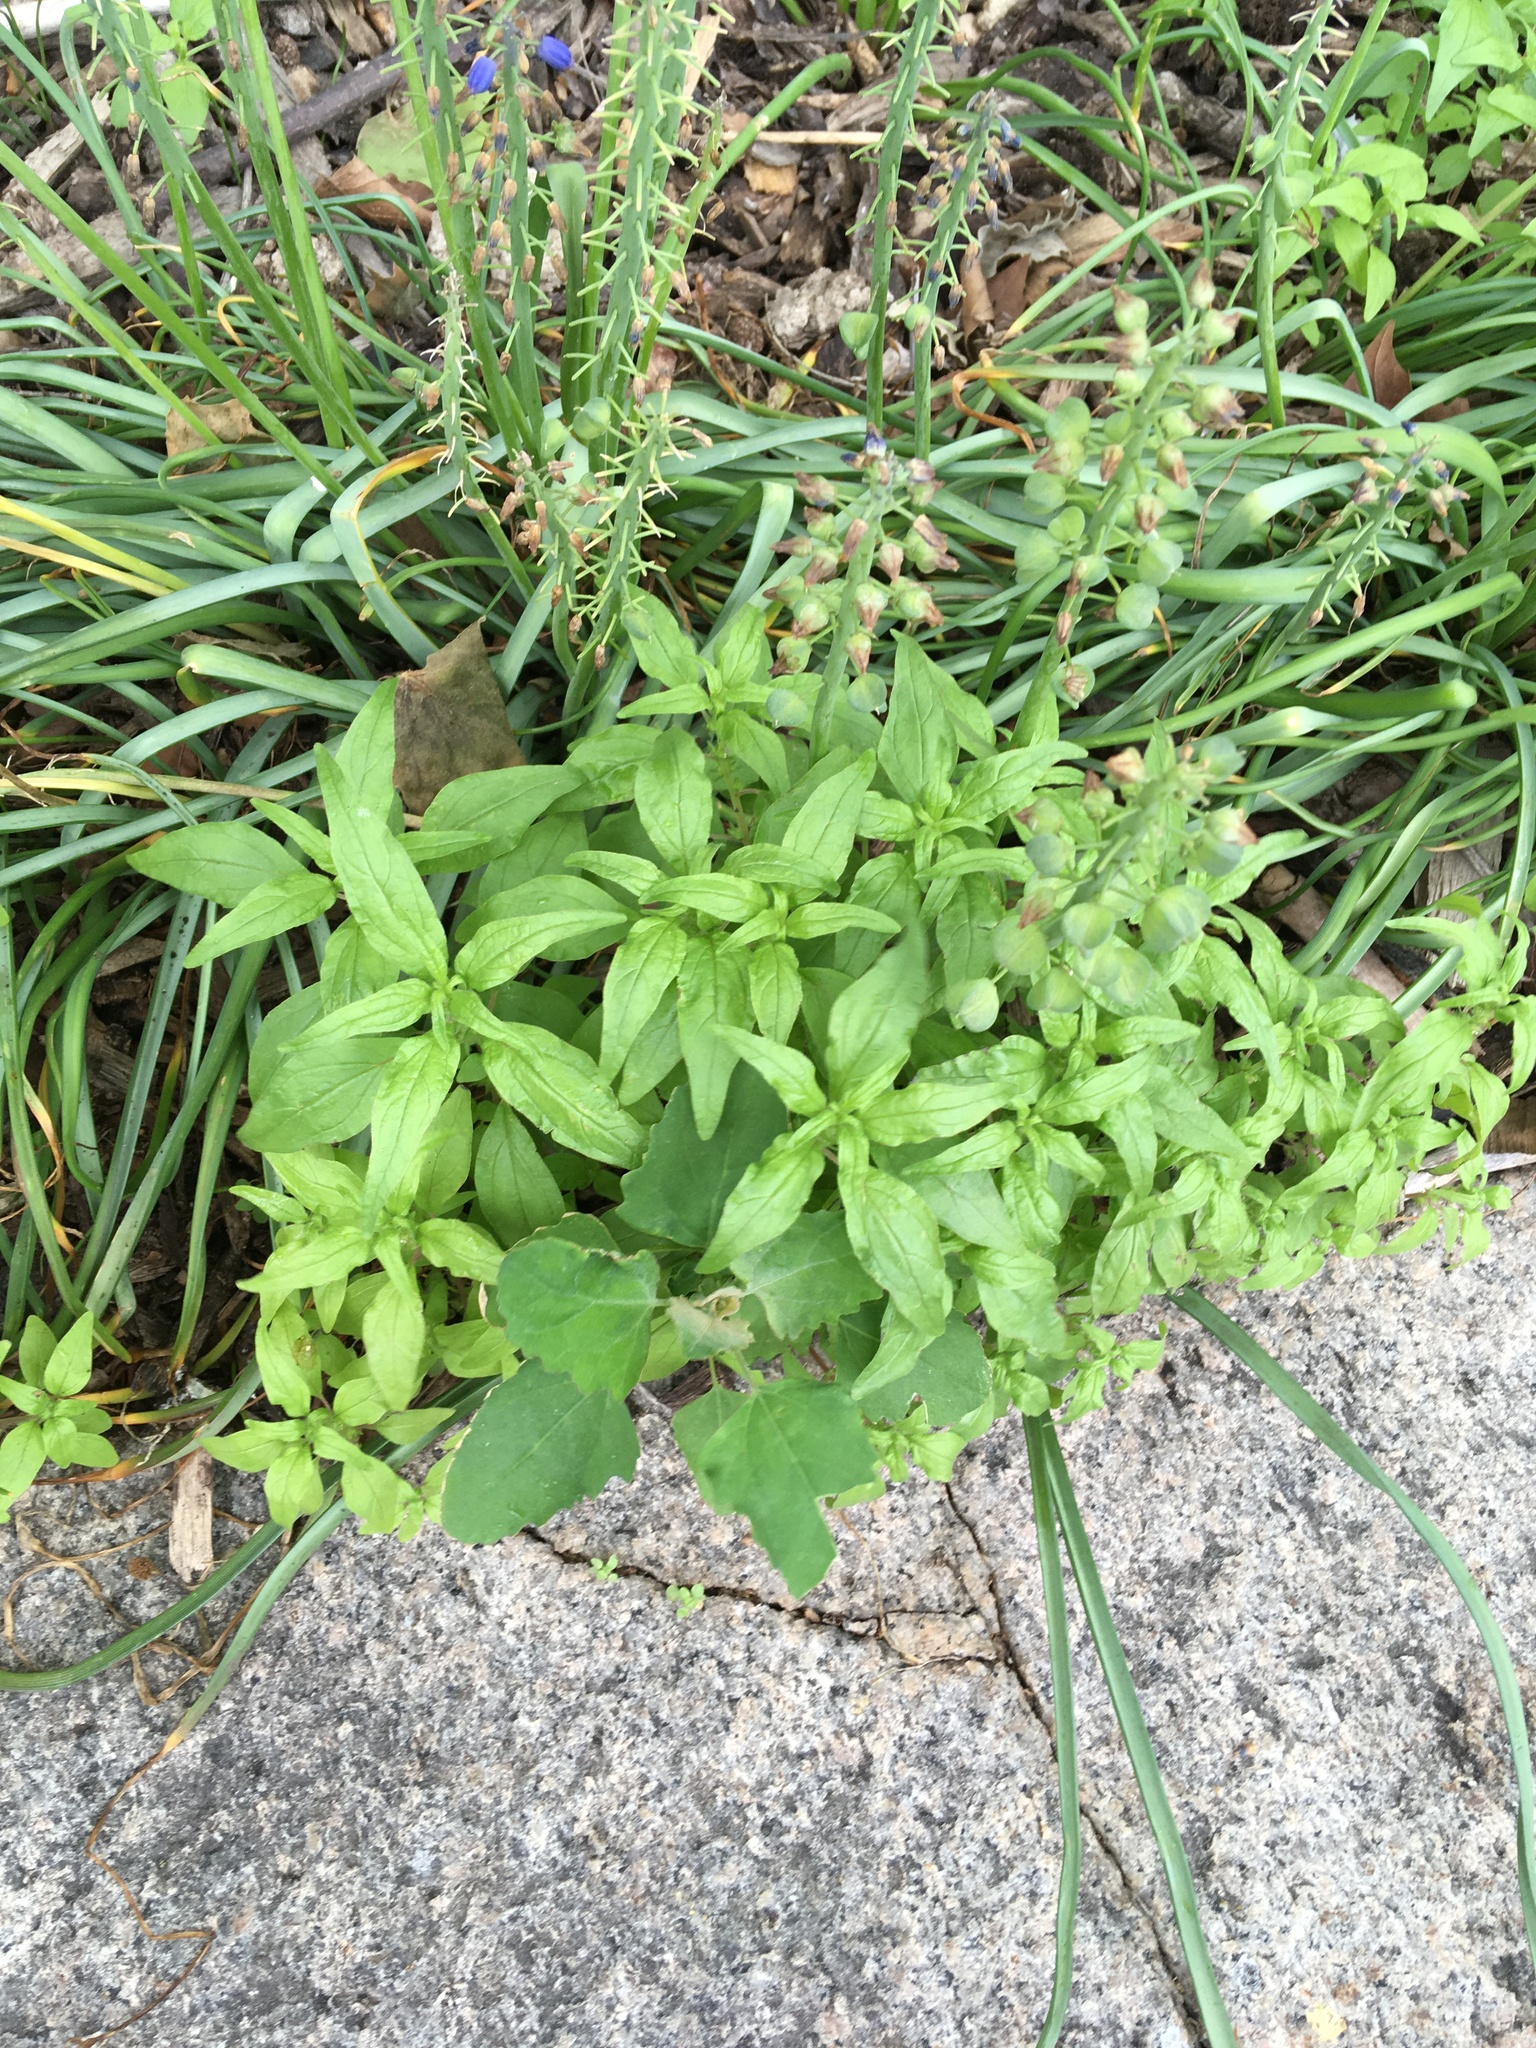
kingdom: Plantae
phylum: Tracheophyta
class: Magnoliopsida
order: Rosales
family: Urticaceae
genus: Parietaria
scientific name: Parietaria pensylvanica
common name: Pennsylvania pellitory
